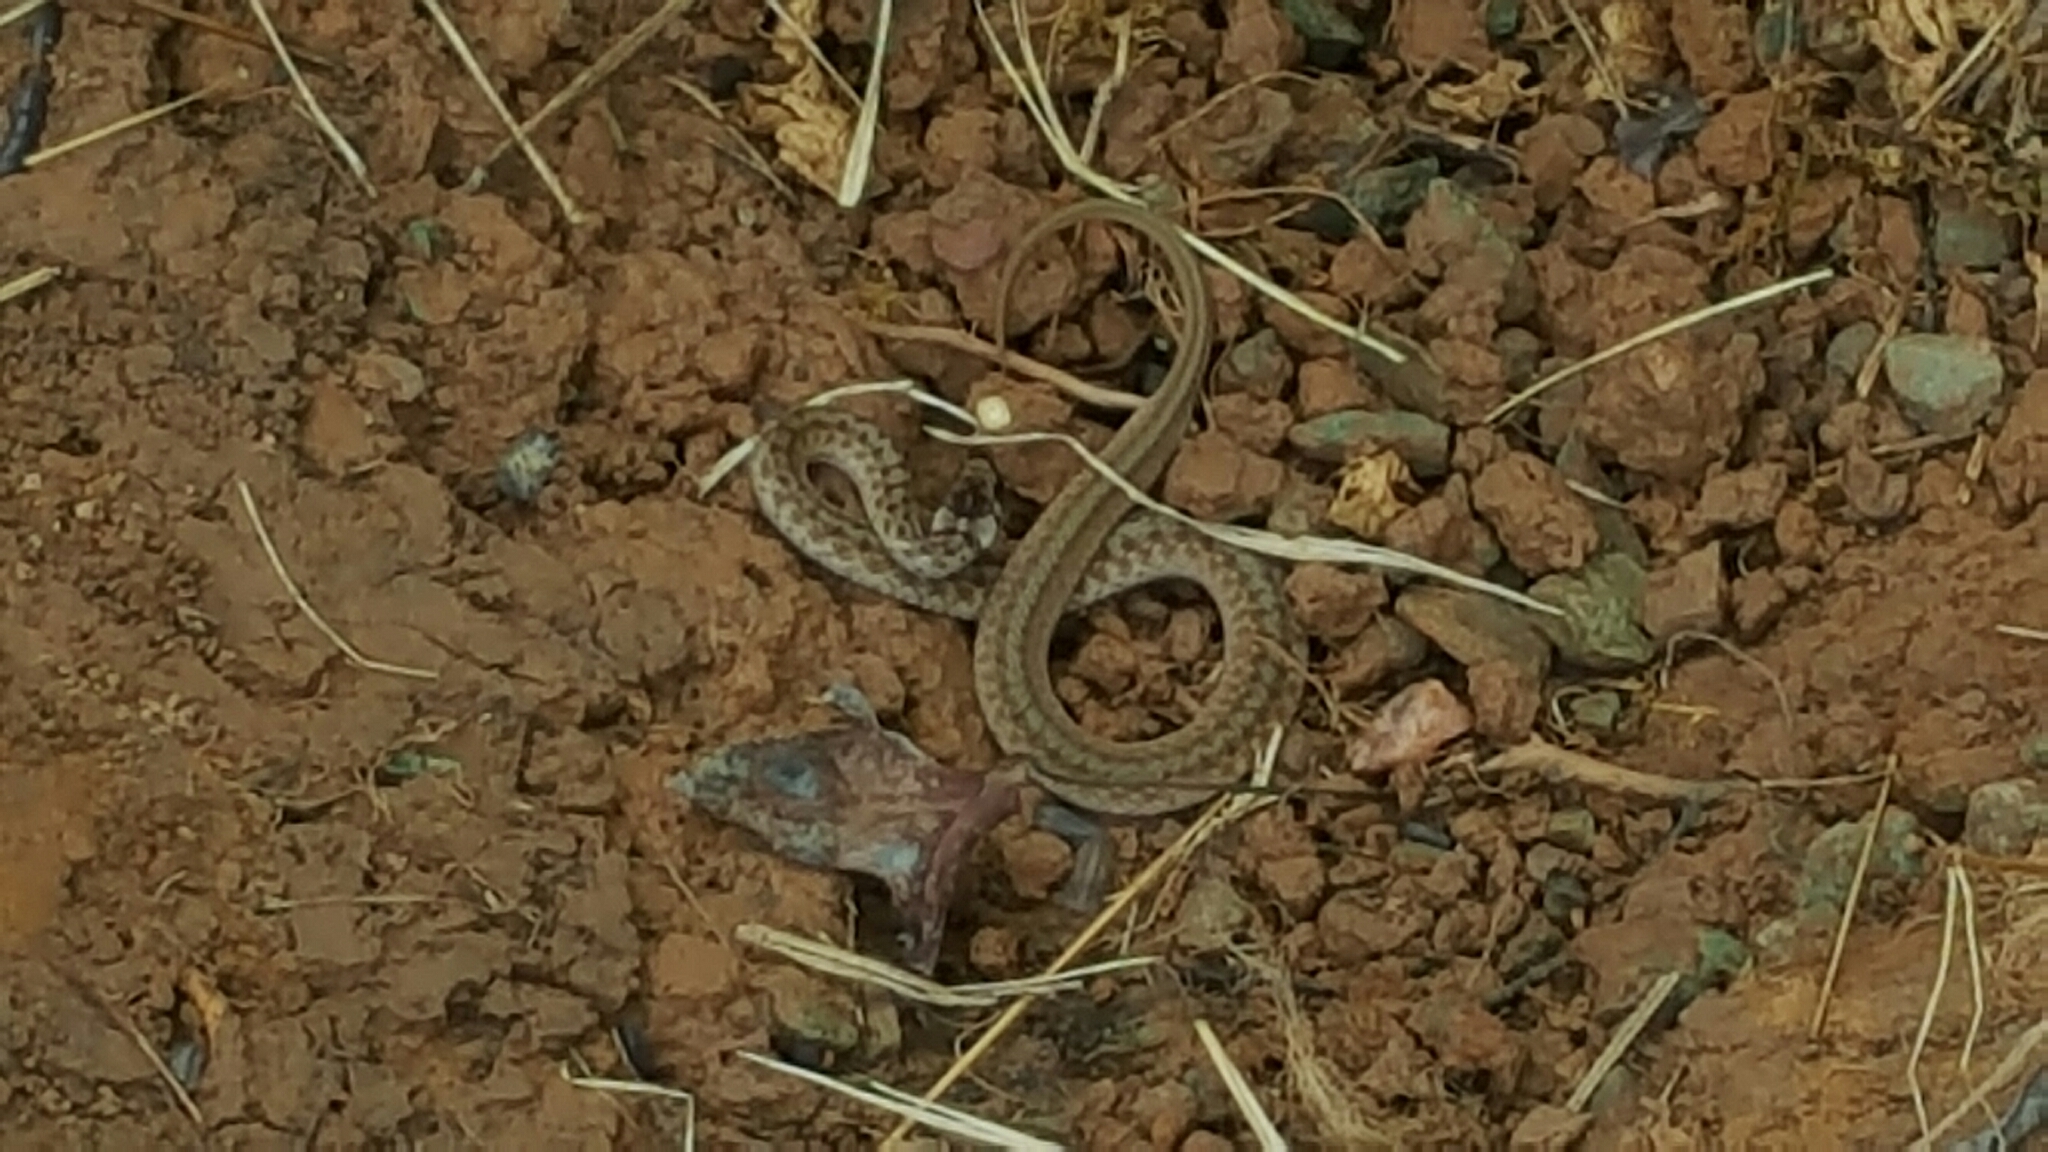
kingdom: Animalia
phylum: Chordata
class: Squamata
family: Colubridae
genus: Storeria
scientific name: Storeria dekayi
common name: (dekay’s) brown snake
